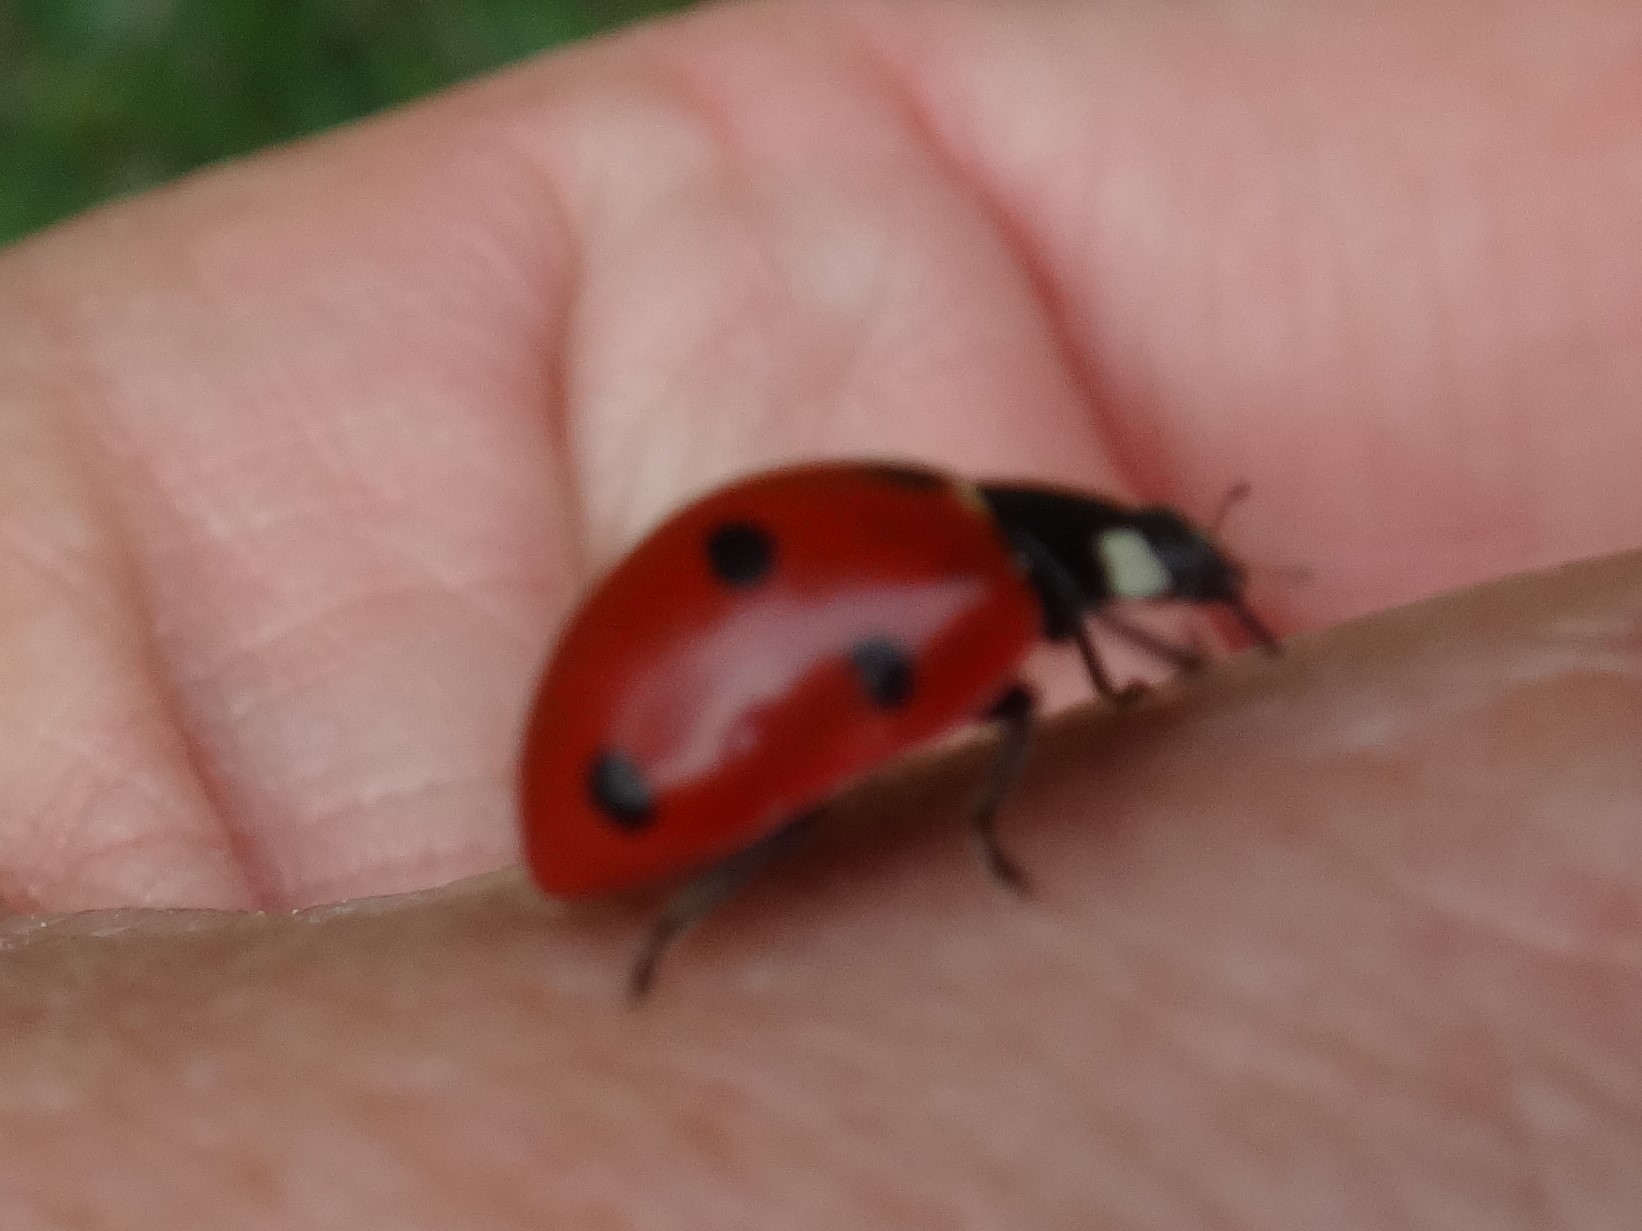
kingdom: Animalia
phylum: Arthropoda
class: Insecta
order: Coleoptera
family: Coccinellidae
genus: Coccinella
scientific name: Coccinella septempunctata
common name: Sevenspotted lady beetle
